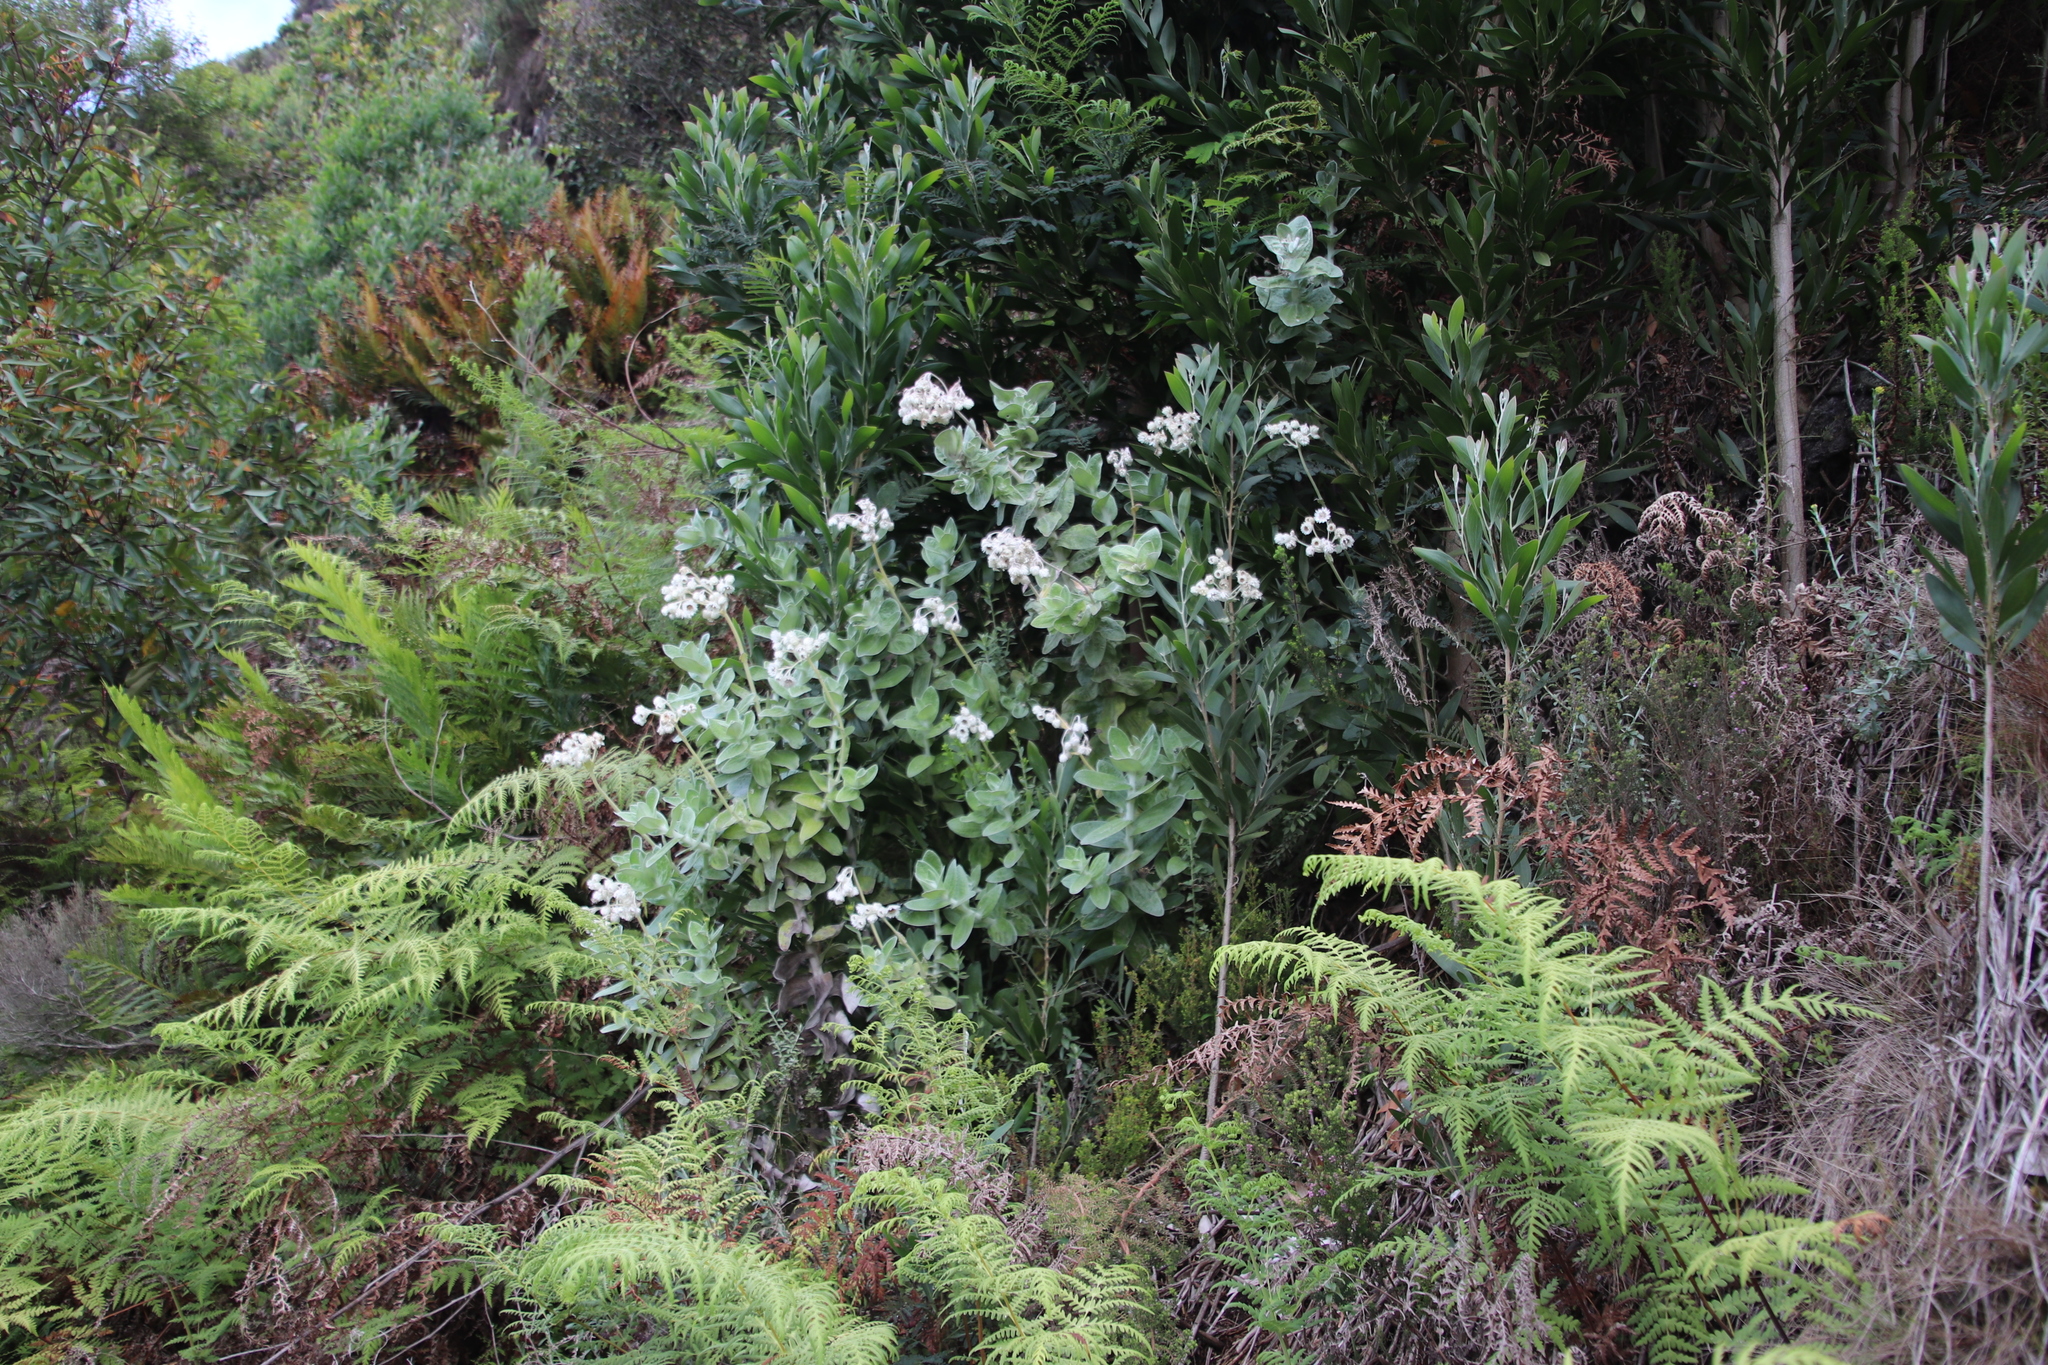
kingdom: Plantae
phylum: Tracheophyta
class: Magnoliopsida
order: Asterales
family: Asteraceae
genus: Helichrysum
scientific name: Helichrysum fruticans
